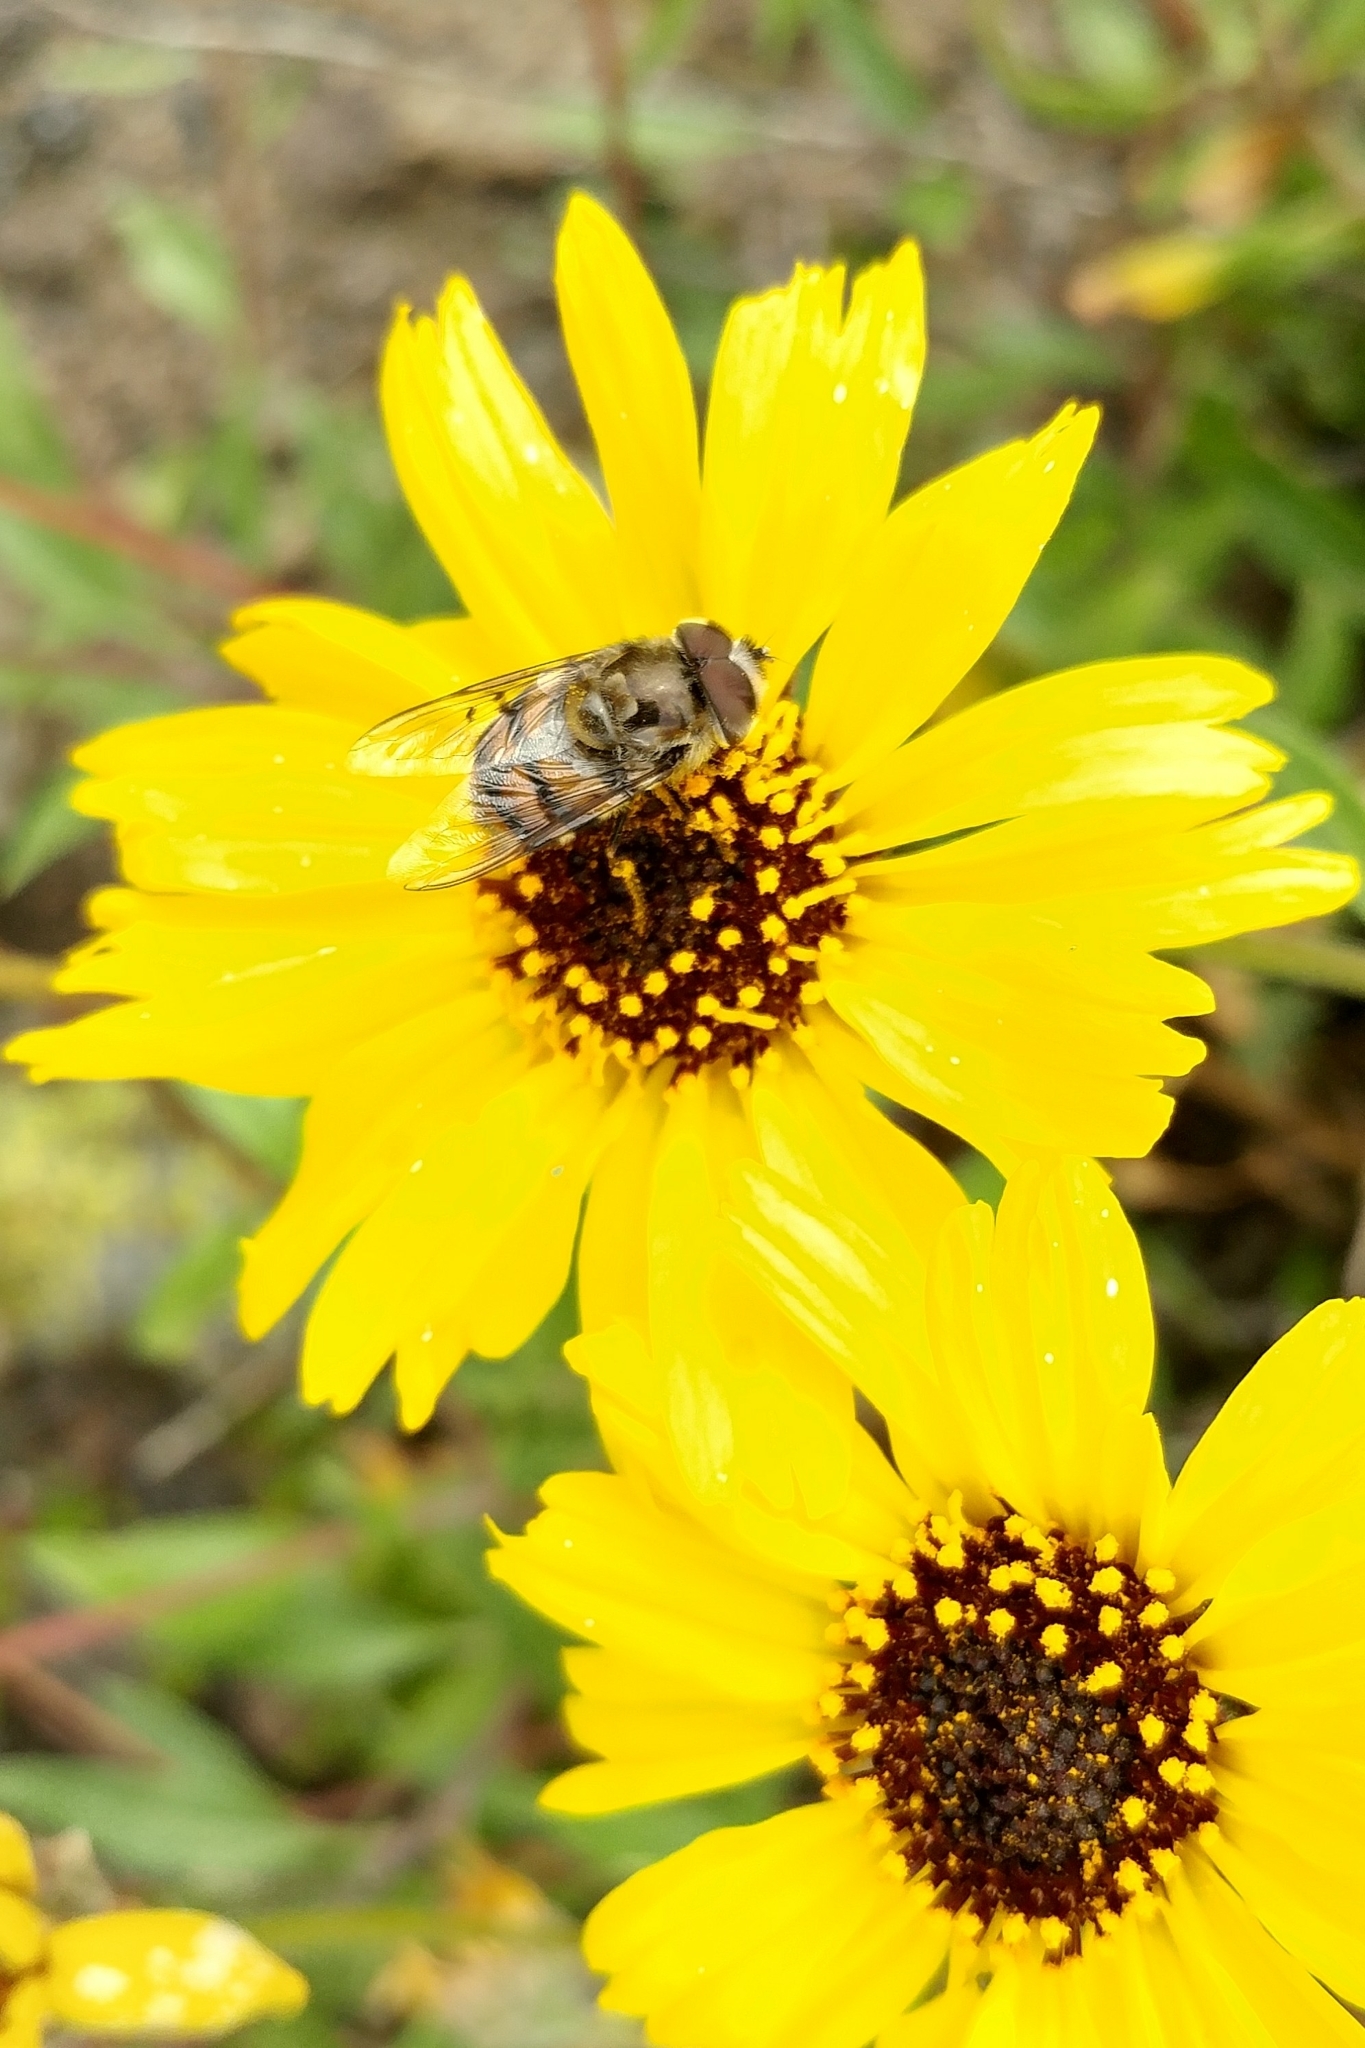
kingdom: Animalia
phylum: Arthropoda
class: Insecta
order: Diptera
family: Syrphidae
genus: Copestylum
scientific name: Copestylum avidum
